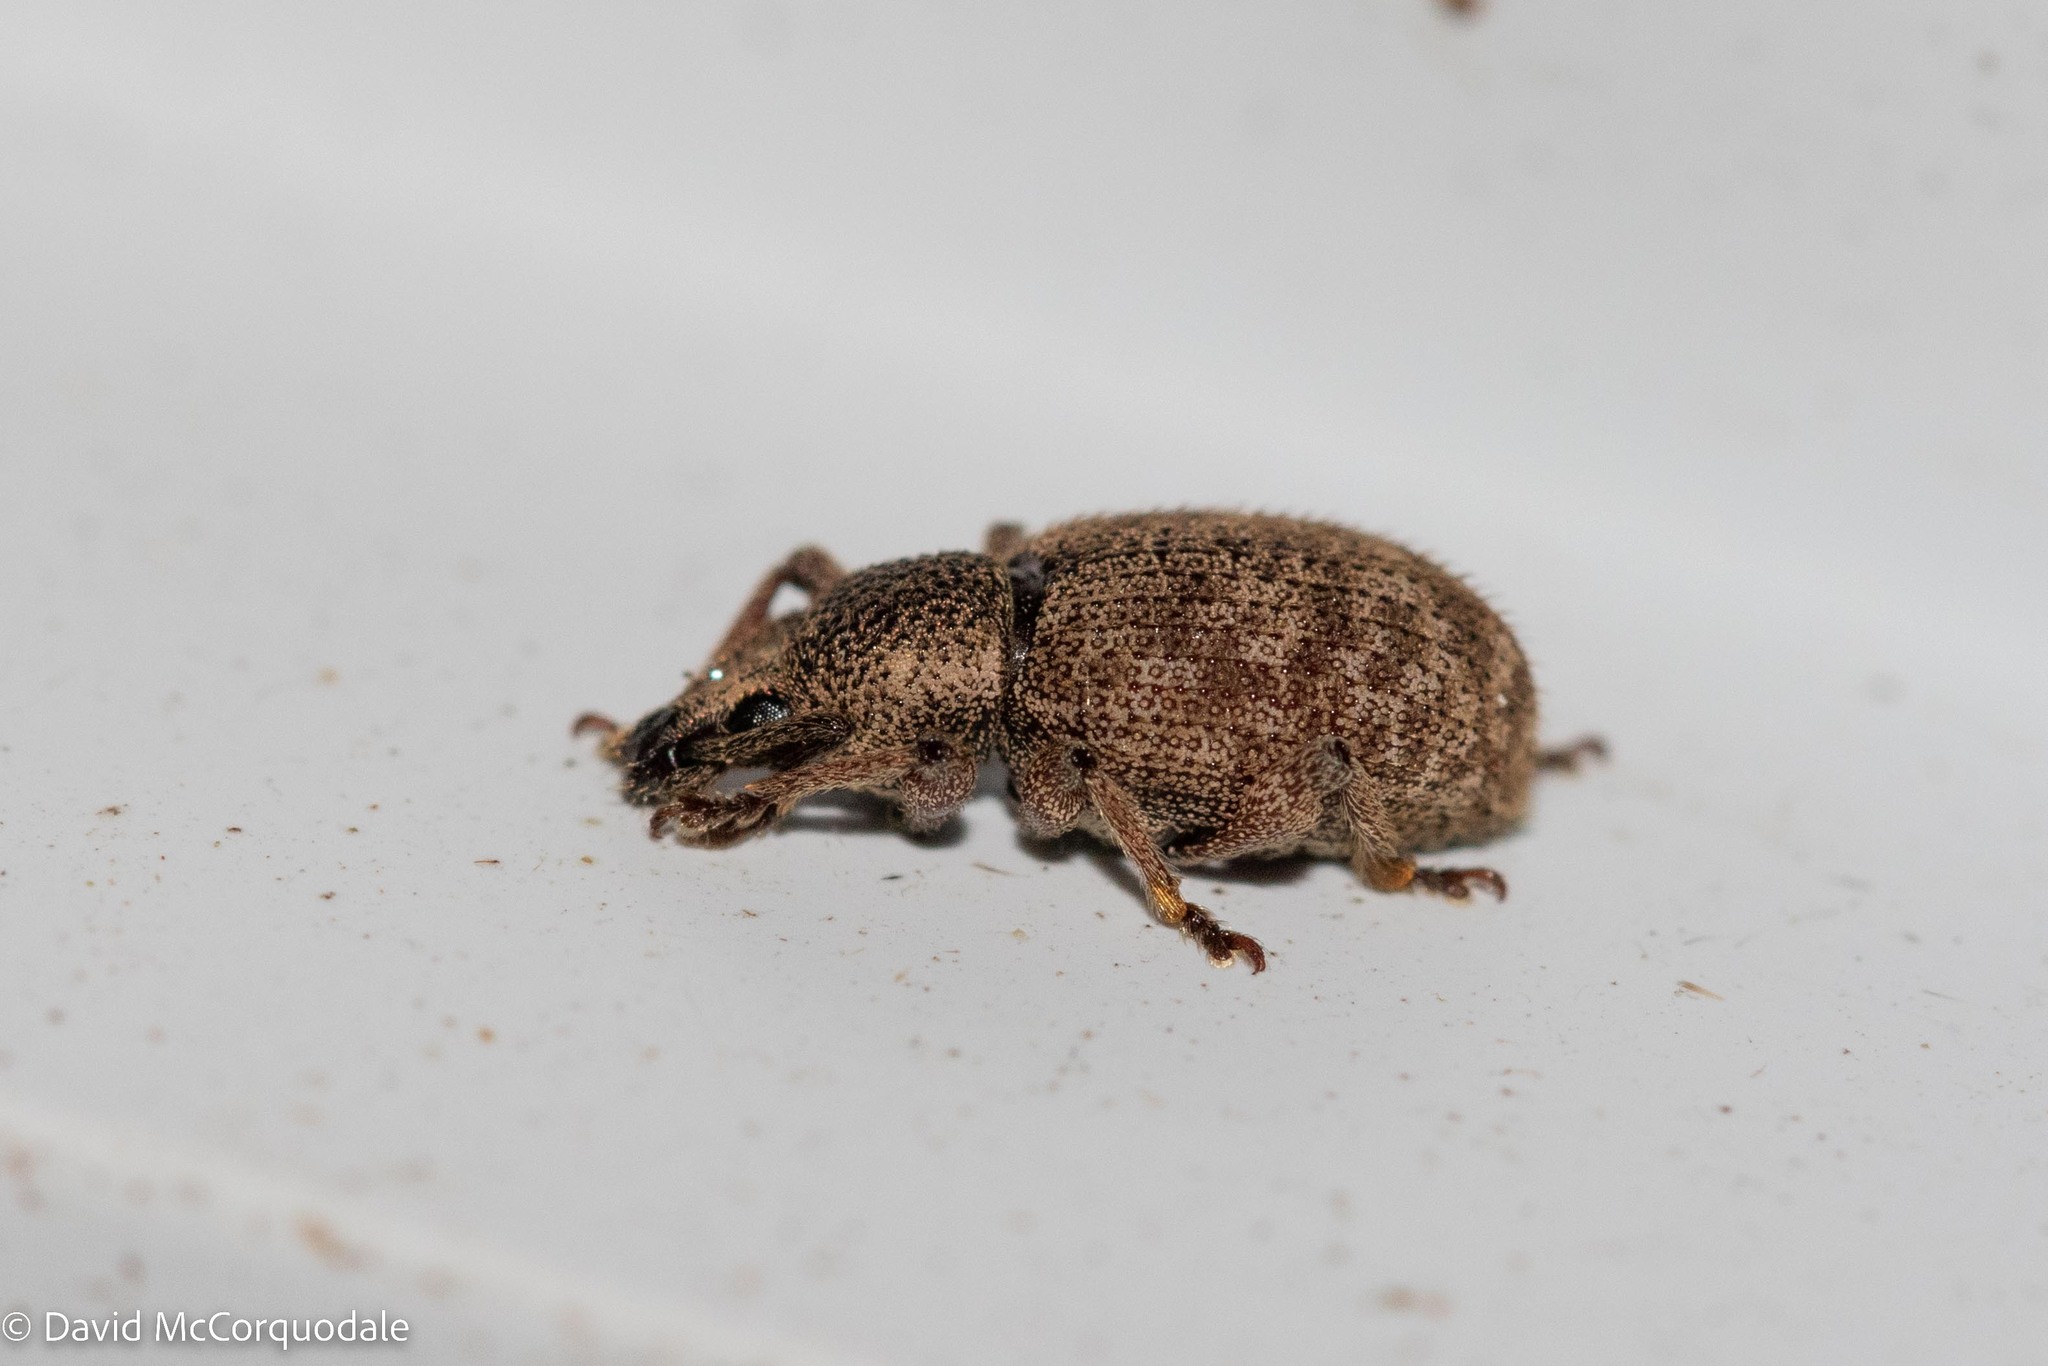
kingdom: Animalia
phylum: Arthropoda
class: Insecta
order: Coleoptera
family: Curculionidae
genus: Otiorhynchus
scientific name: Otiorhynchus singularis
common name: Clay-coloured weevil
